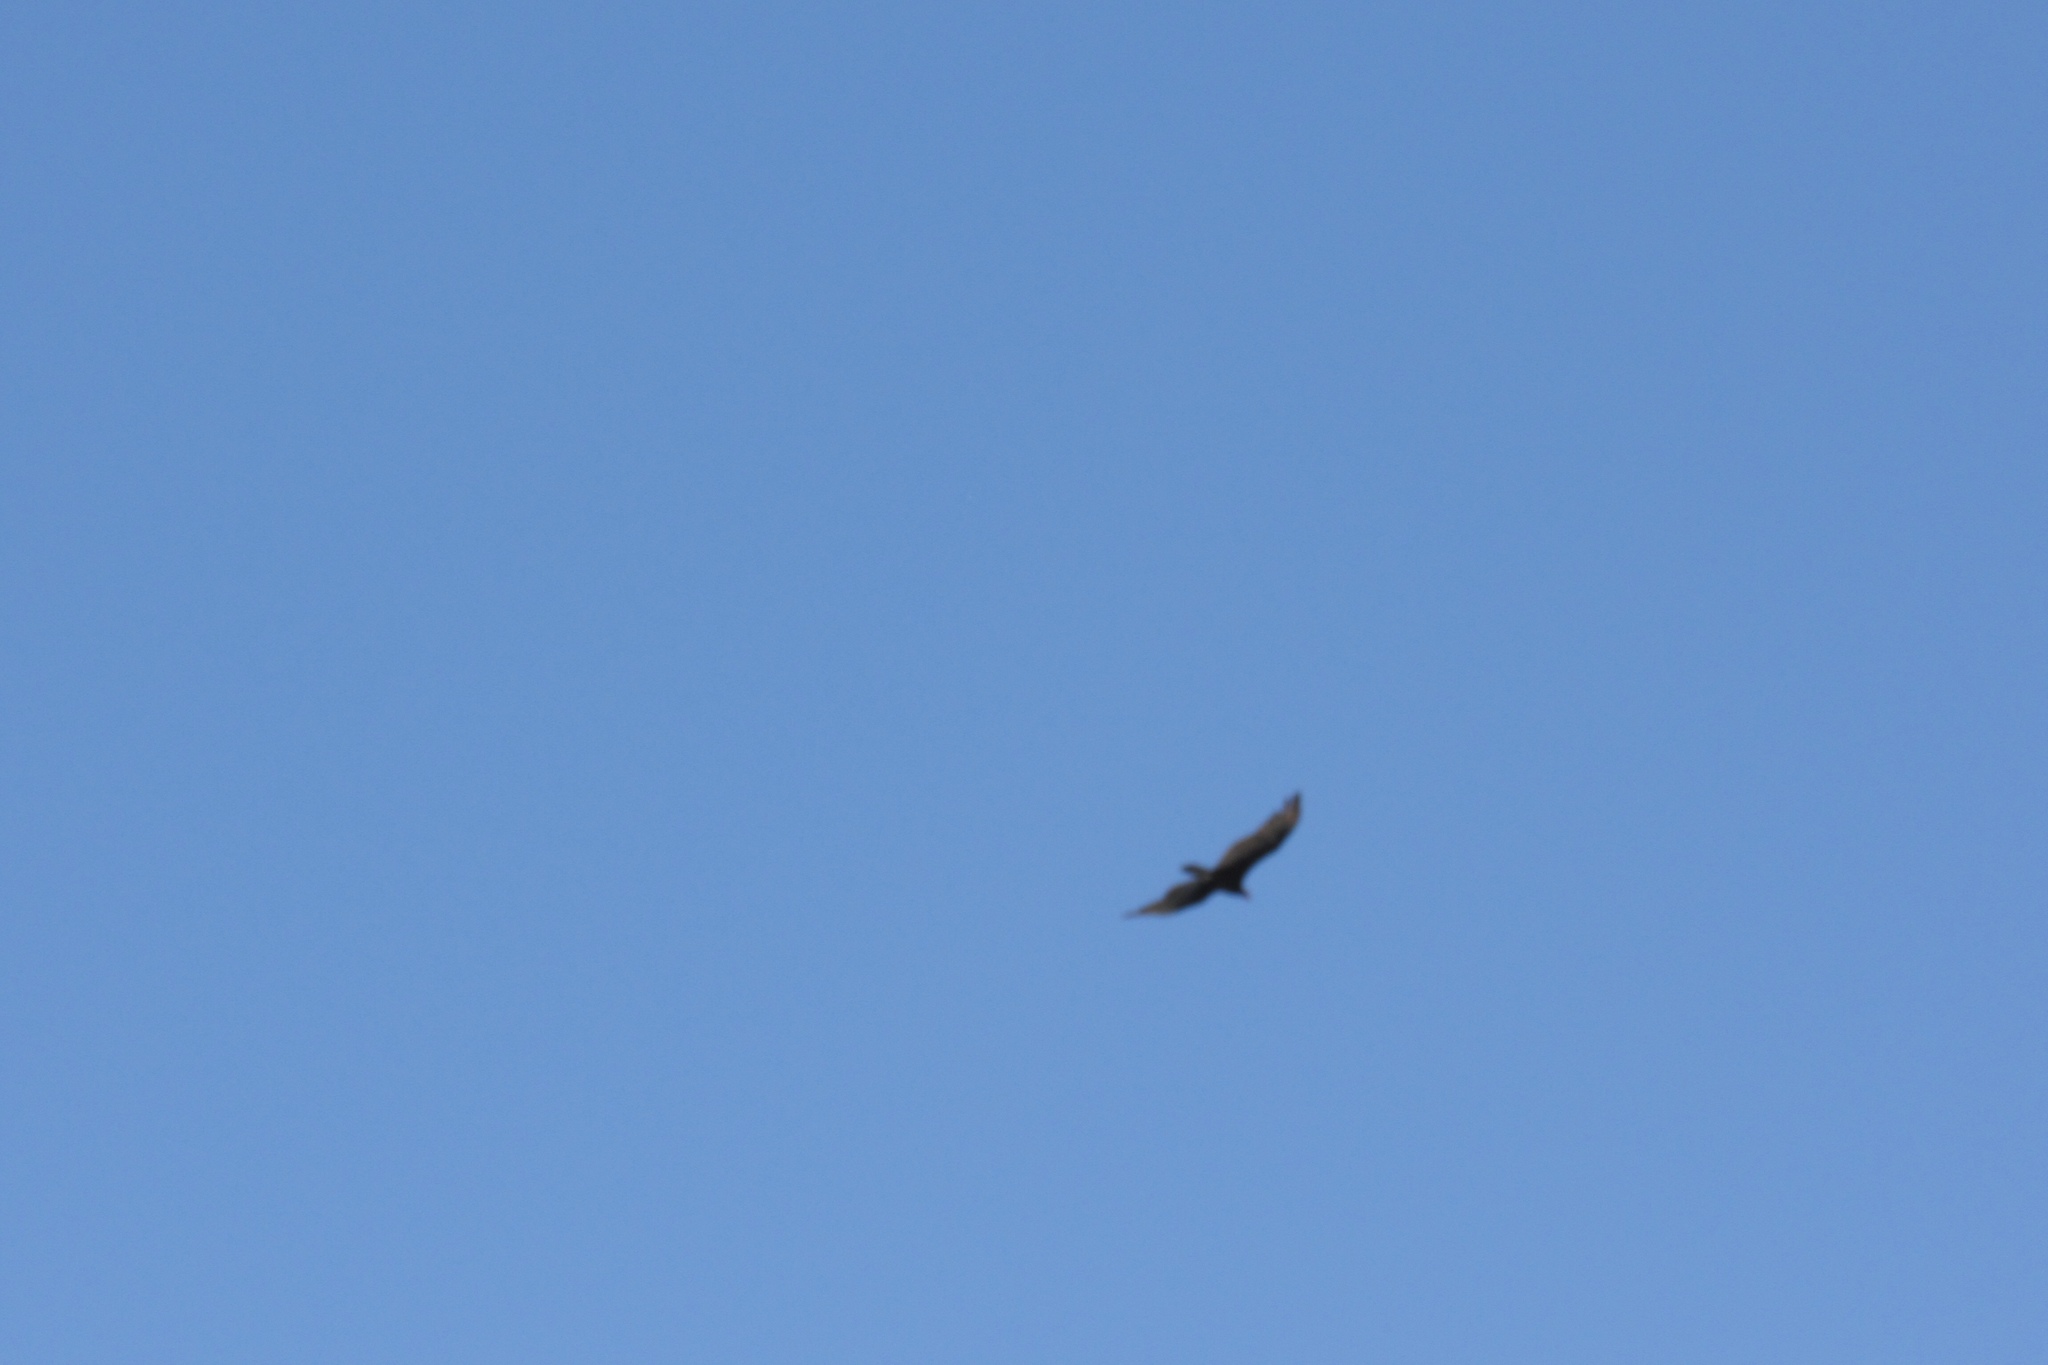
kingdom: Animalia
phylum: Chordata
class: Aves
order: Accipitriformes
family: Cathartidae
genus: Cathartes
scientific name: Cathartes aura
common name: Turkey vulture
